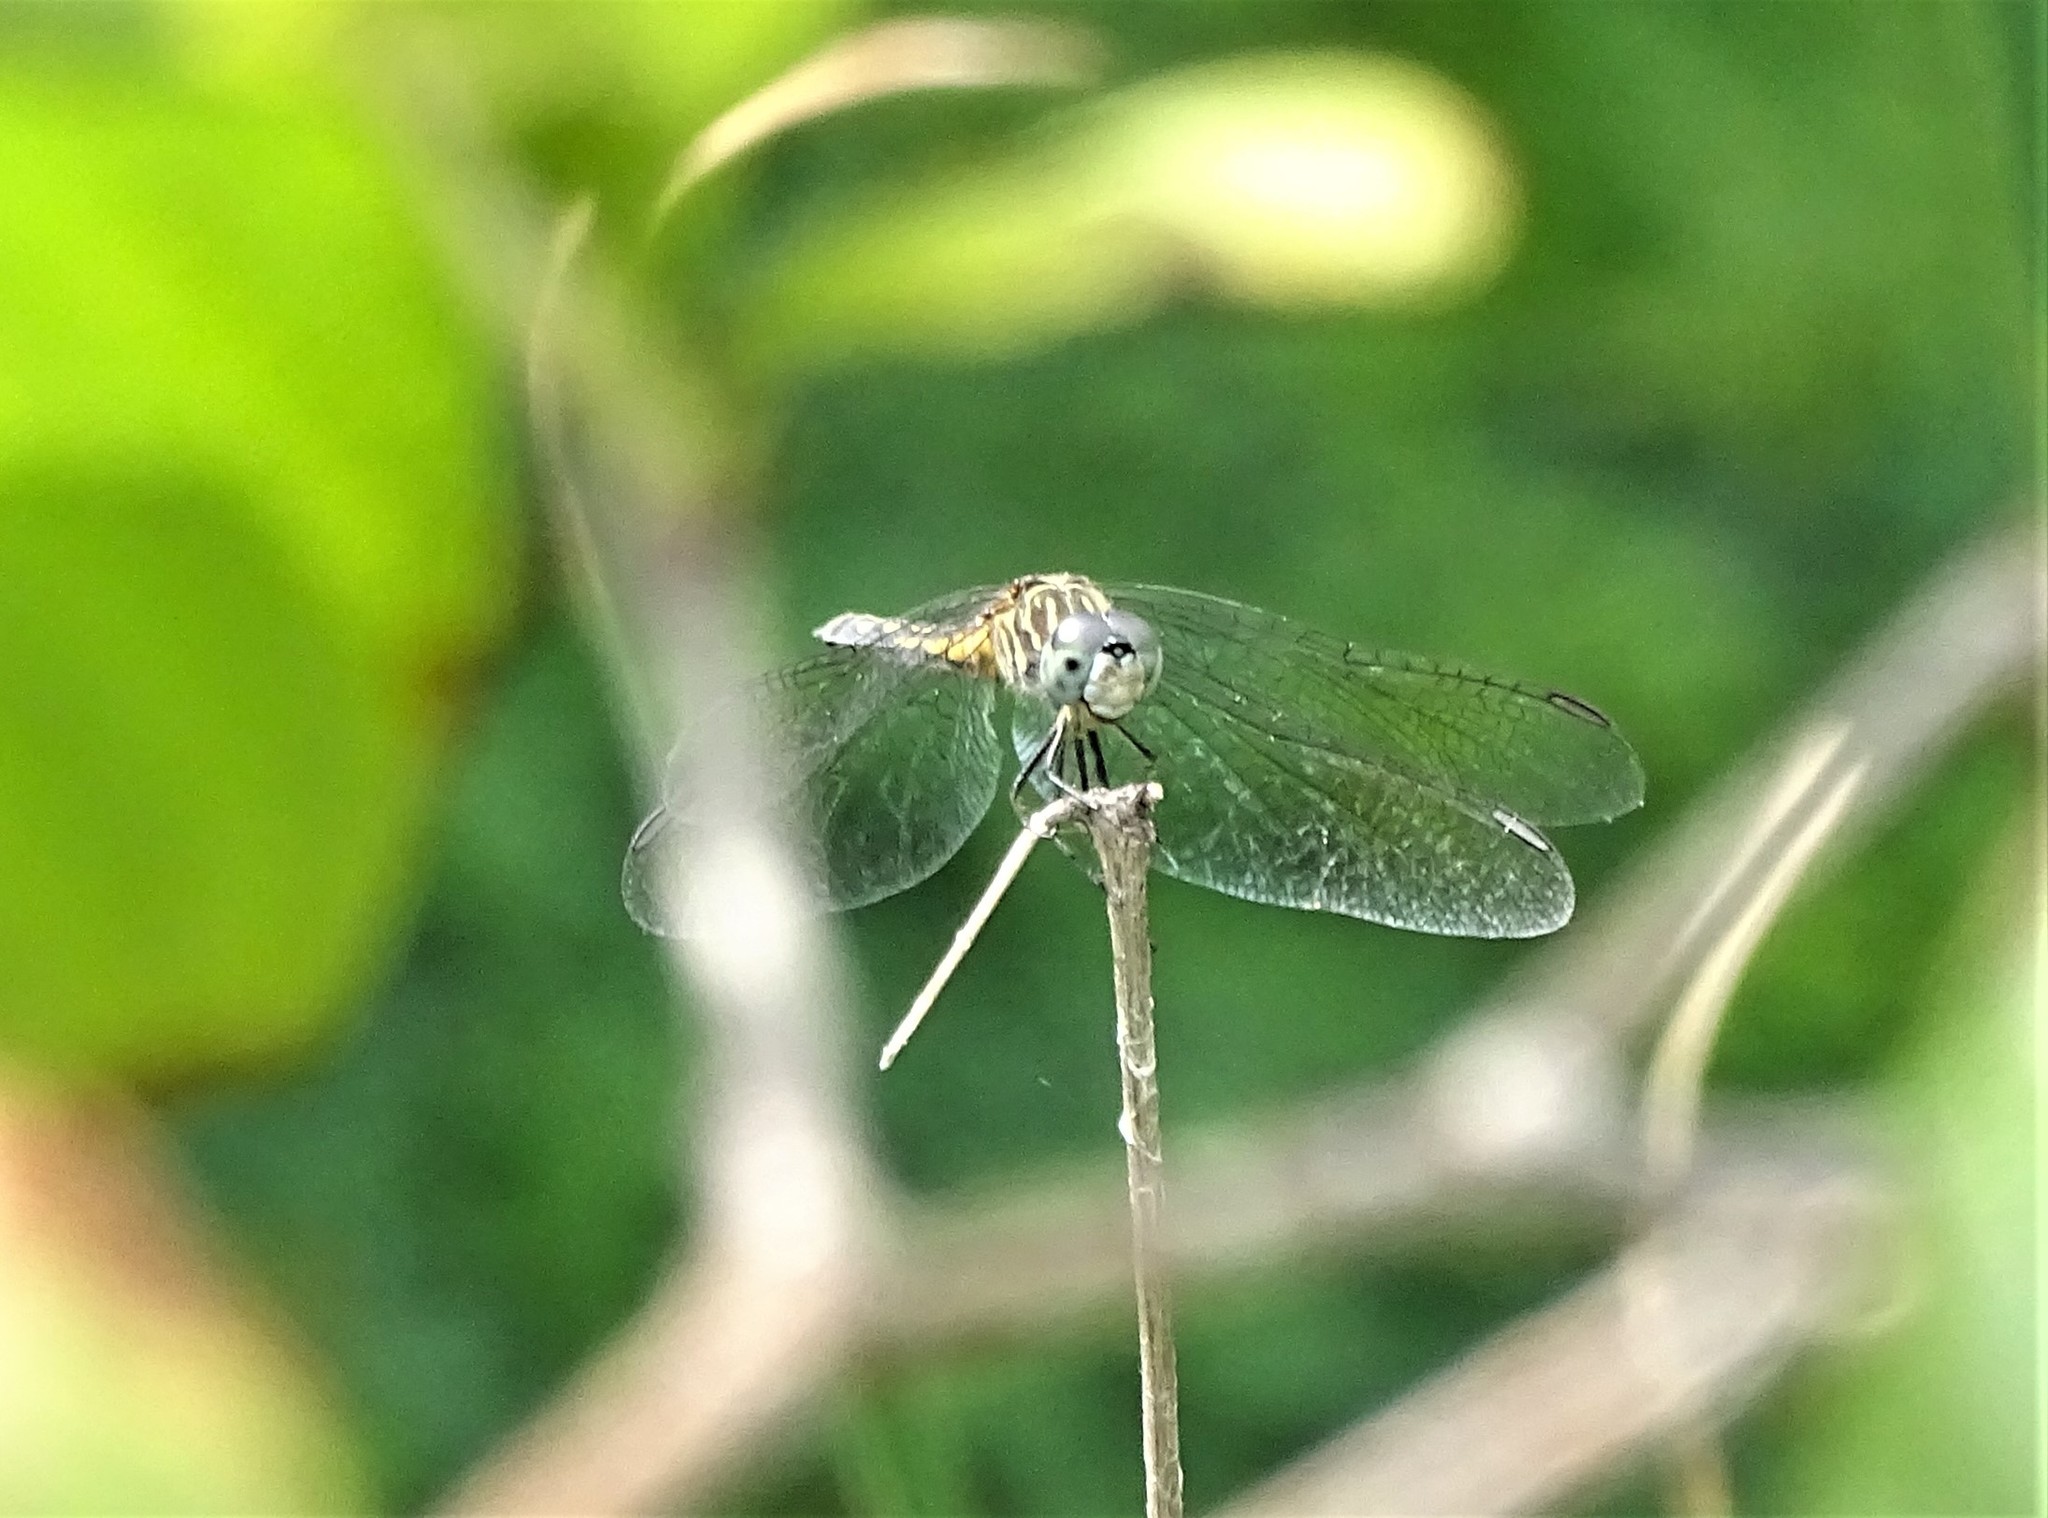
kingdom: Animalia
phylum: Arthropoda
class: Insecta
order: Odonata
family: Libellulidae
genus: Pachydiplax
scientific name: Pachydiplax longipennis
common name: Blue dasher
